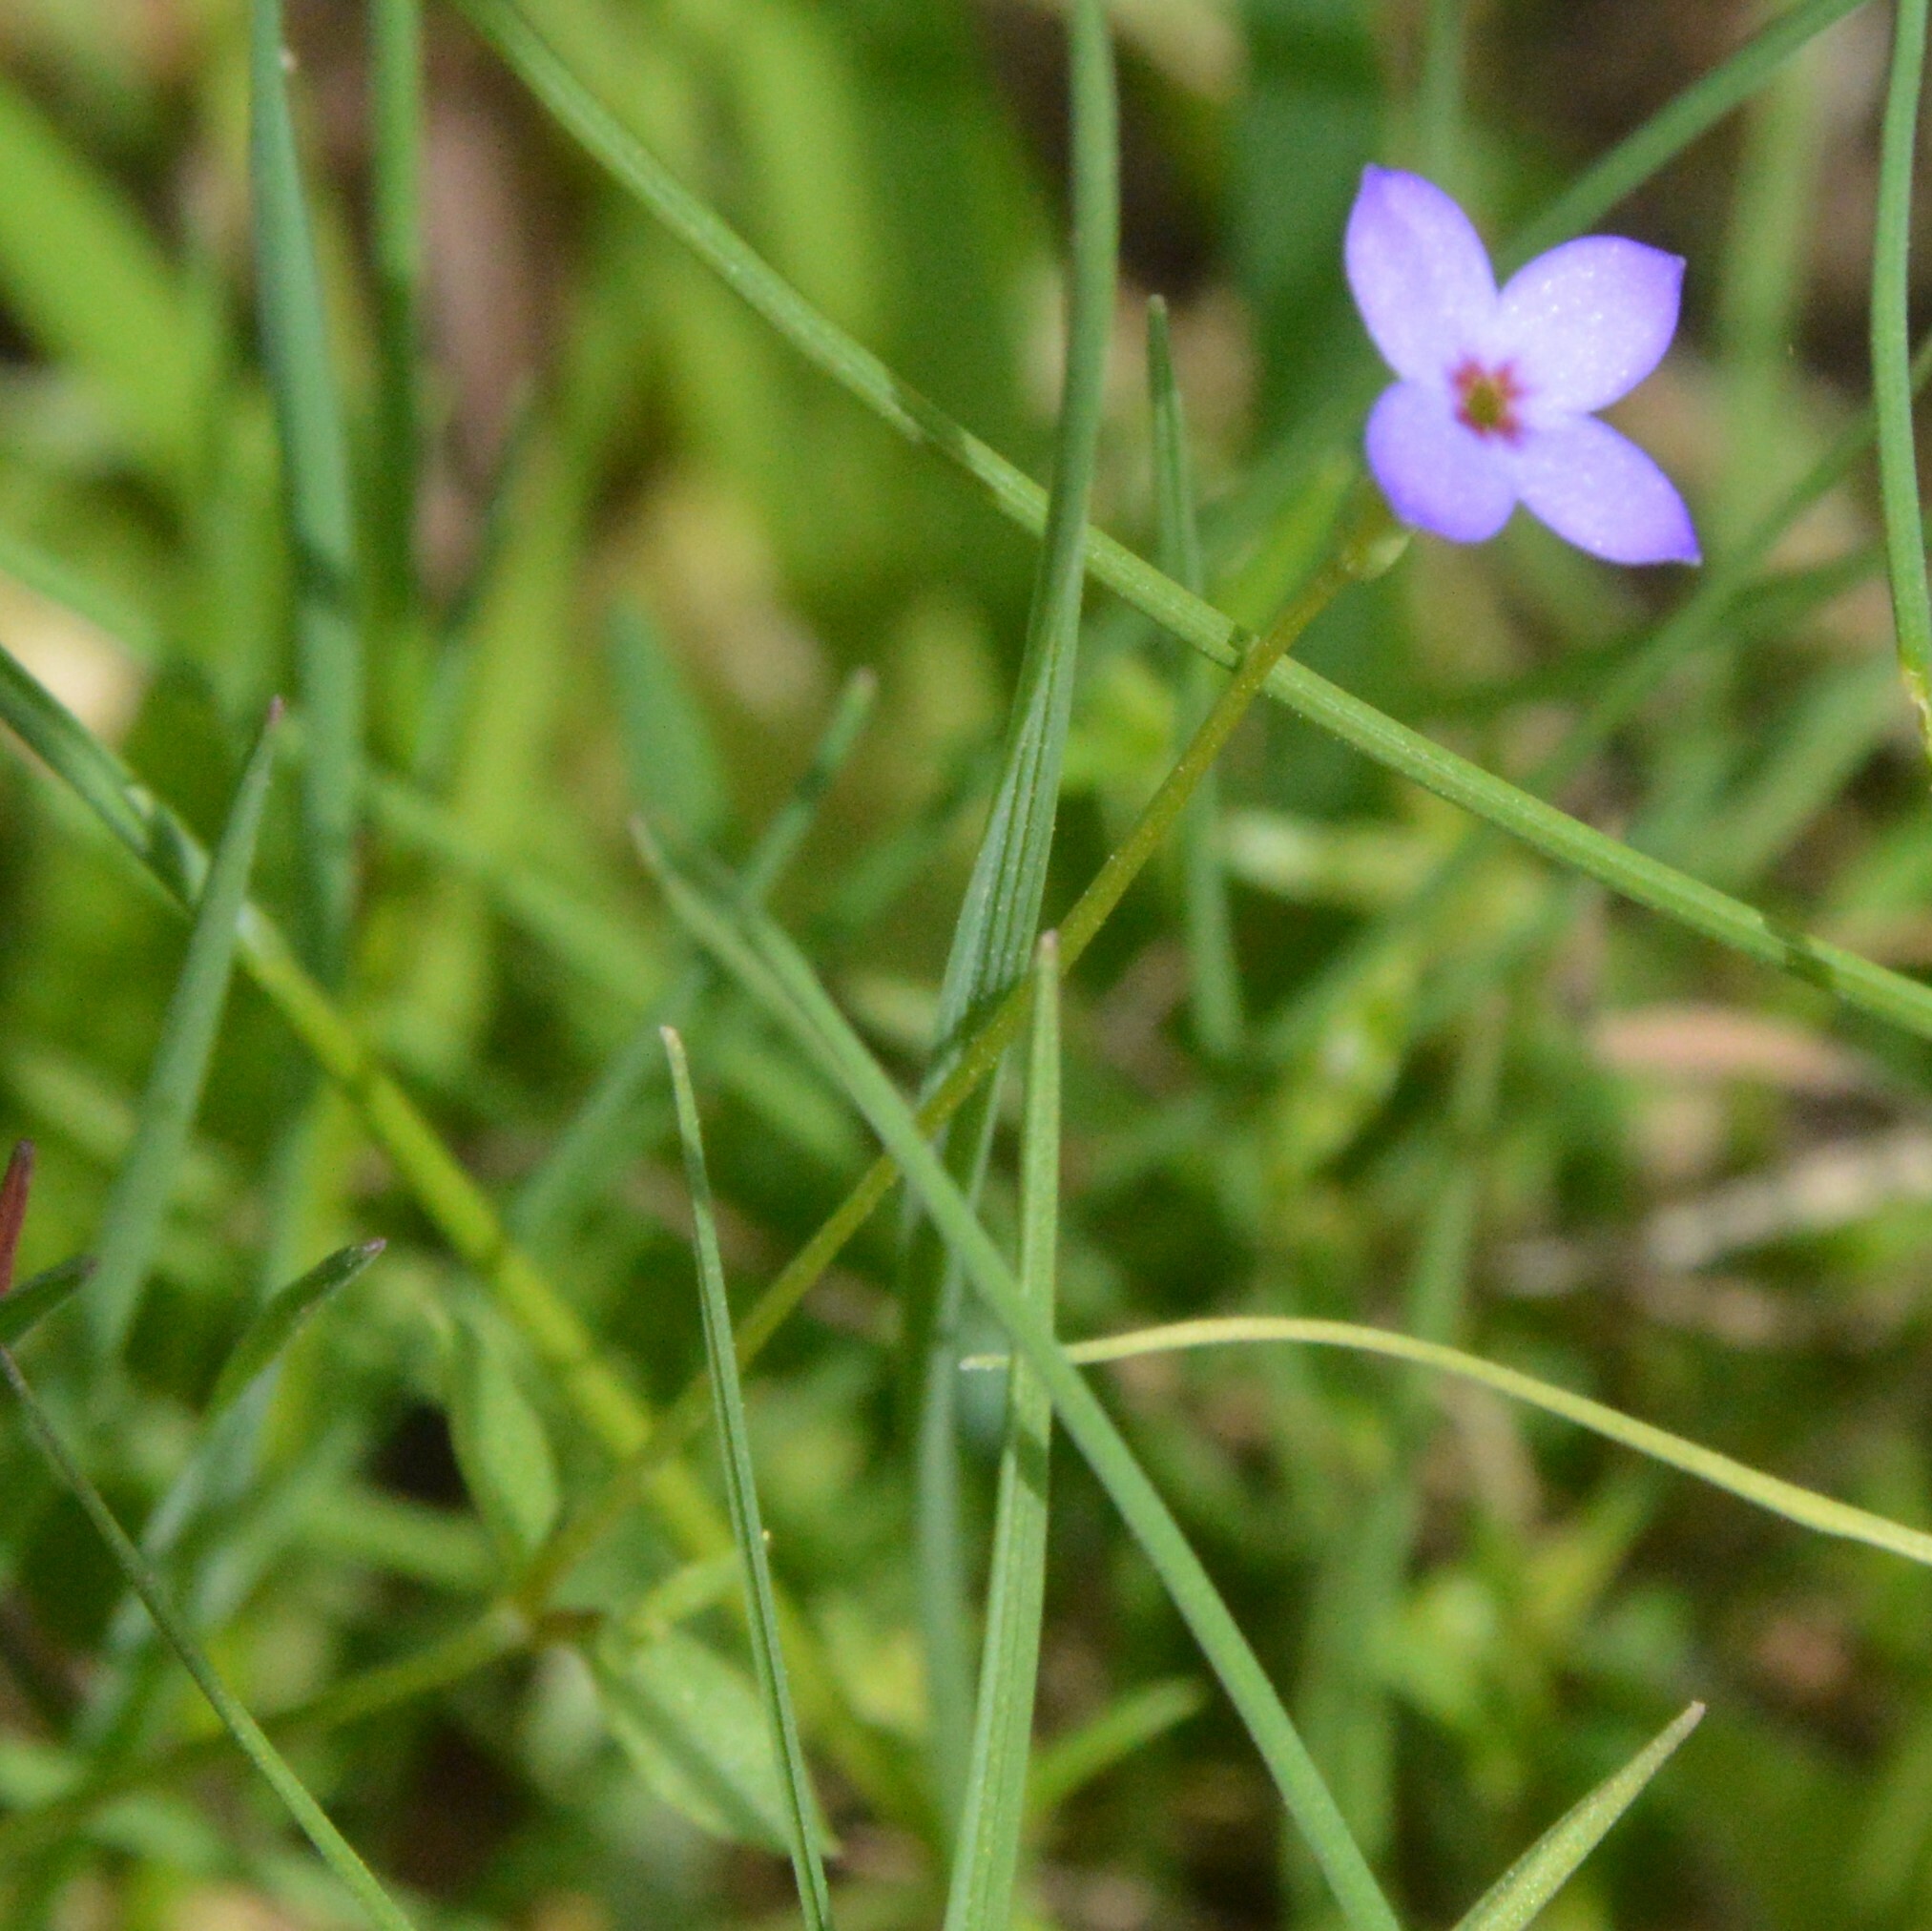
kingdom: Plantae
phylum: Tracheophyta
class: Magnoliopsida
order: Gentianales
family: Rubiaceae
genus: Houstonia
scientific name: Houstonia pusilla
